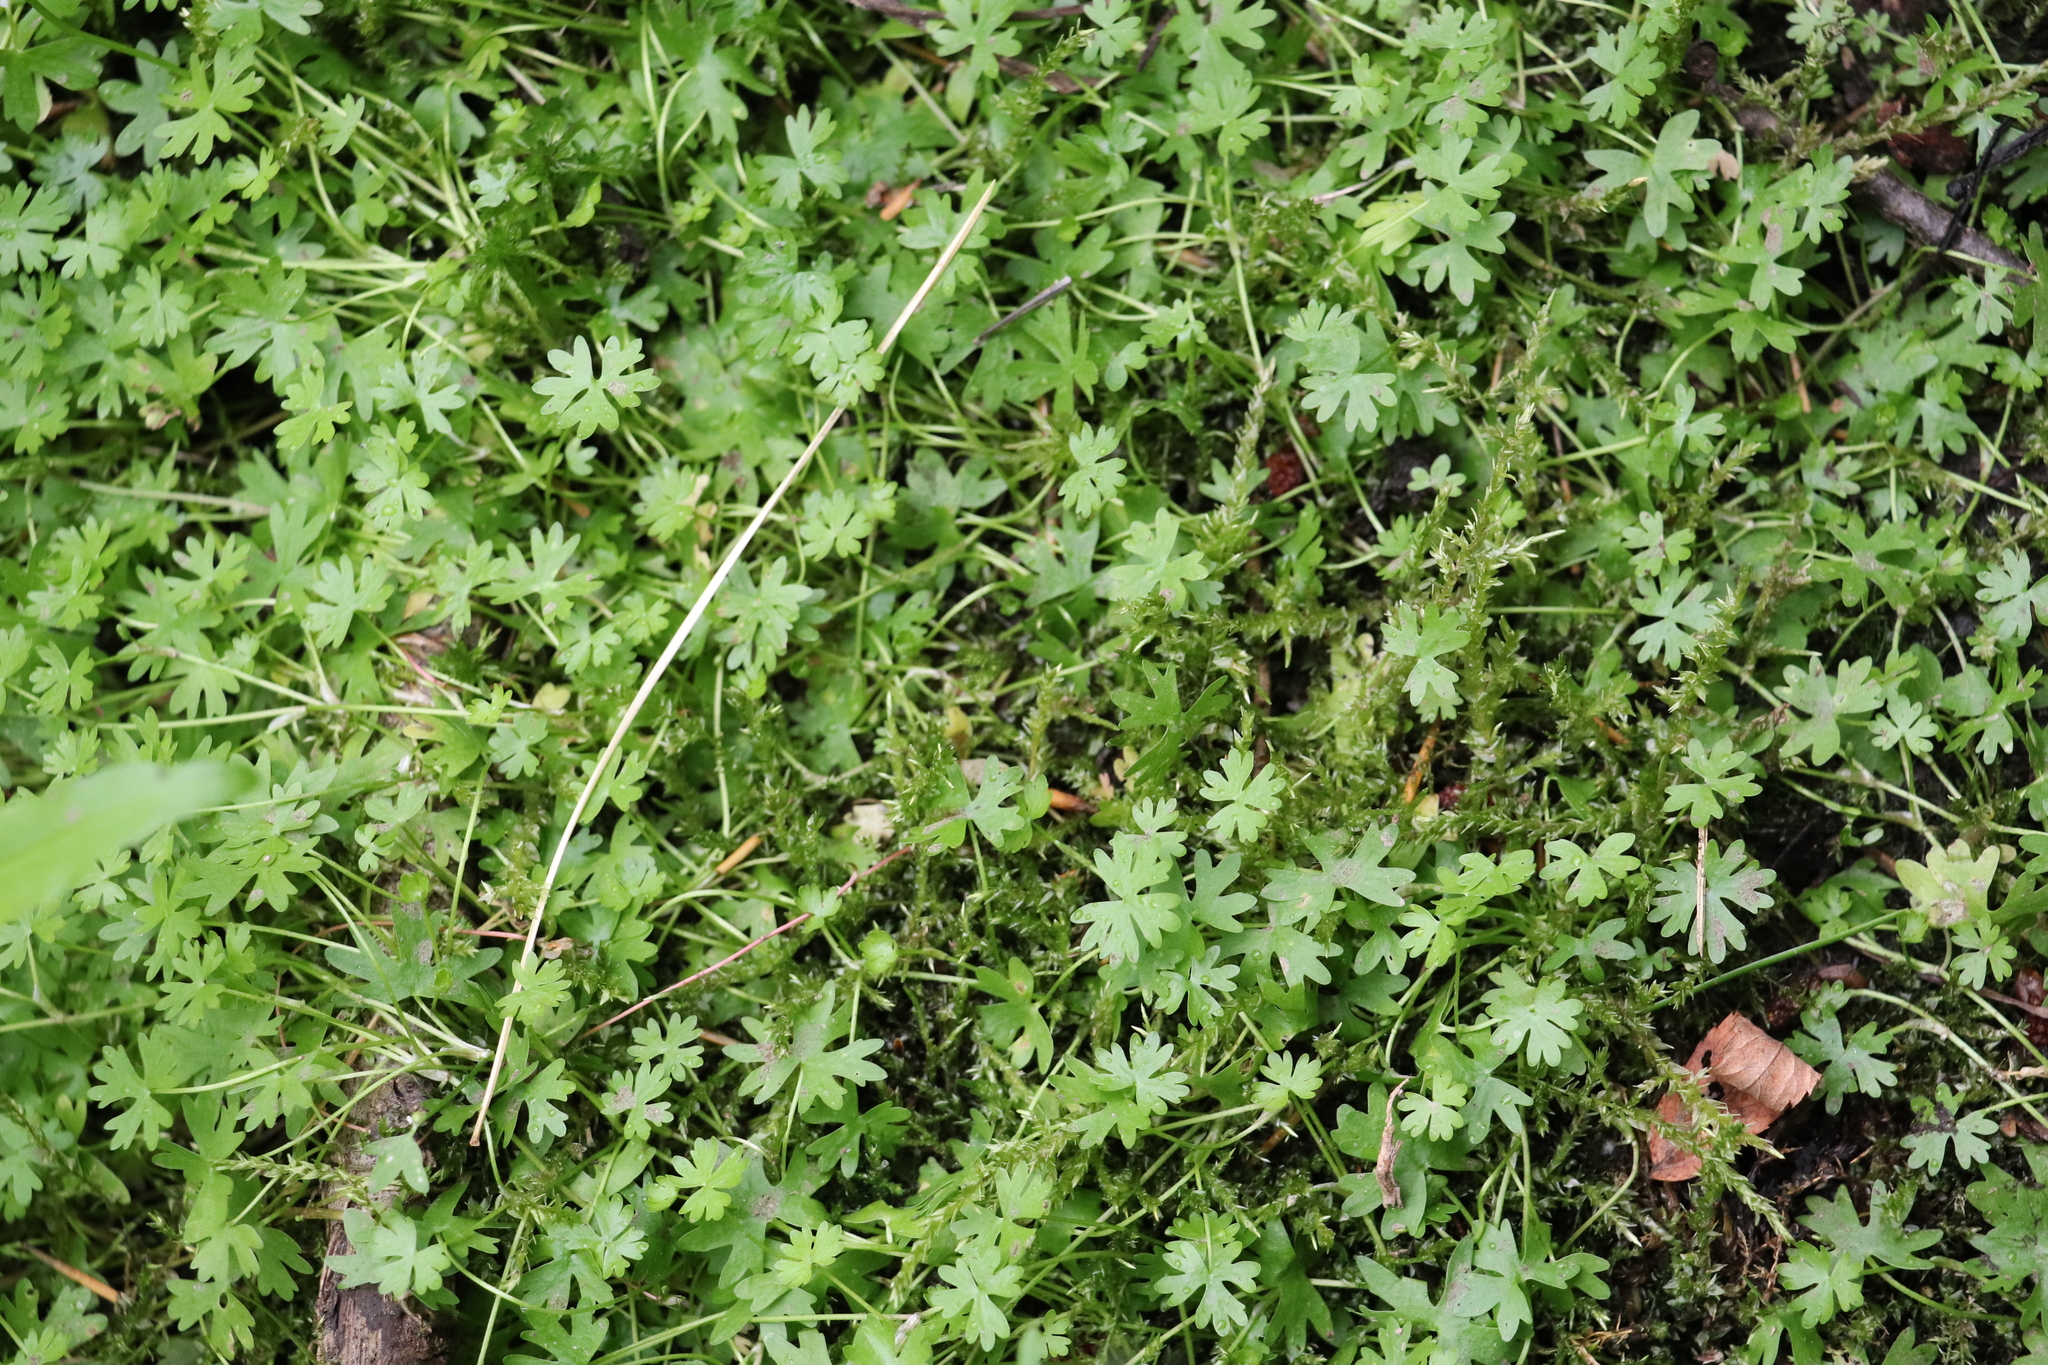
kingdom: Plantae
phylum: Tracheophyta
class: Magnoliopsida
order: Ranunculales
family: Ranunculaceae
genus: Ranunculus
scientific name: Ranunculus gmelinii
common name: Gmelin's buttercup
